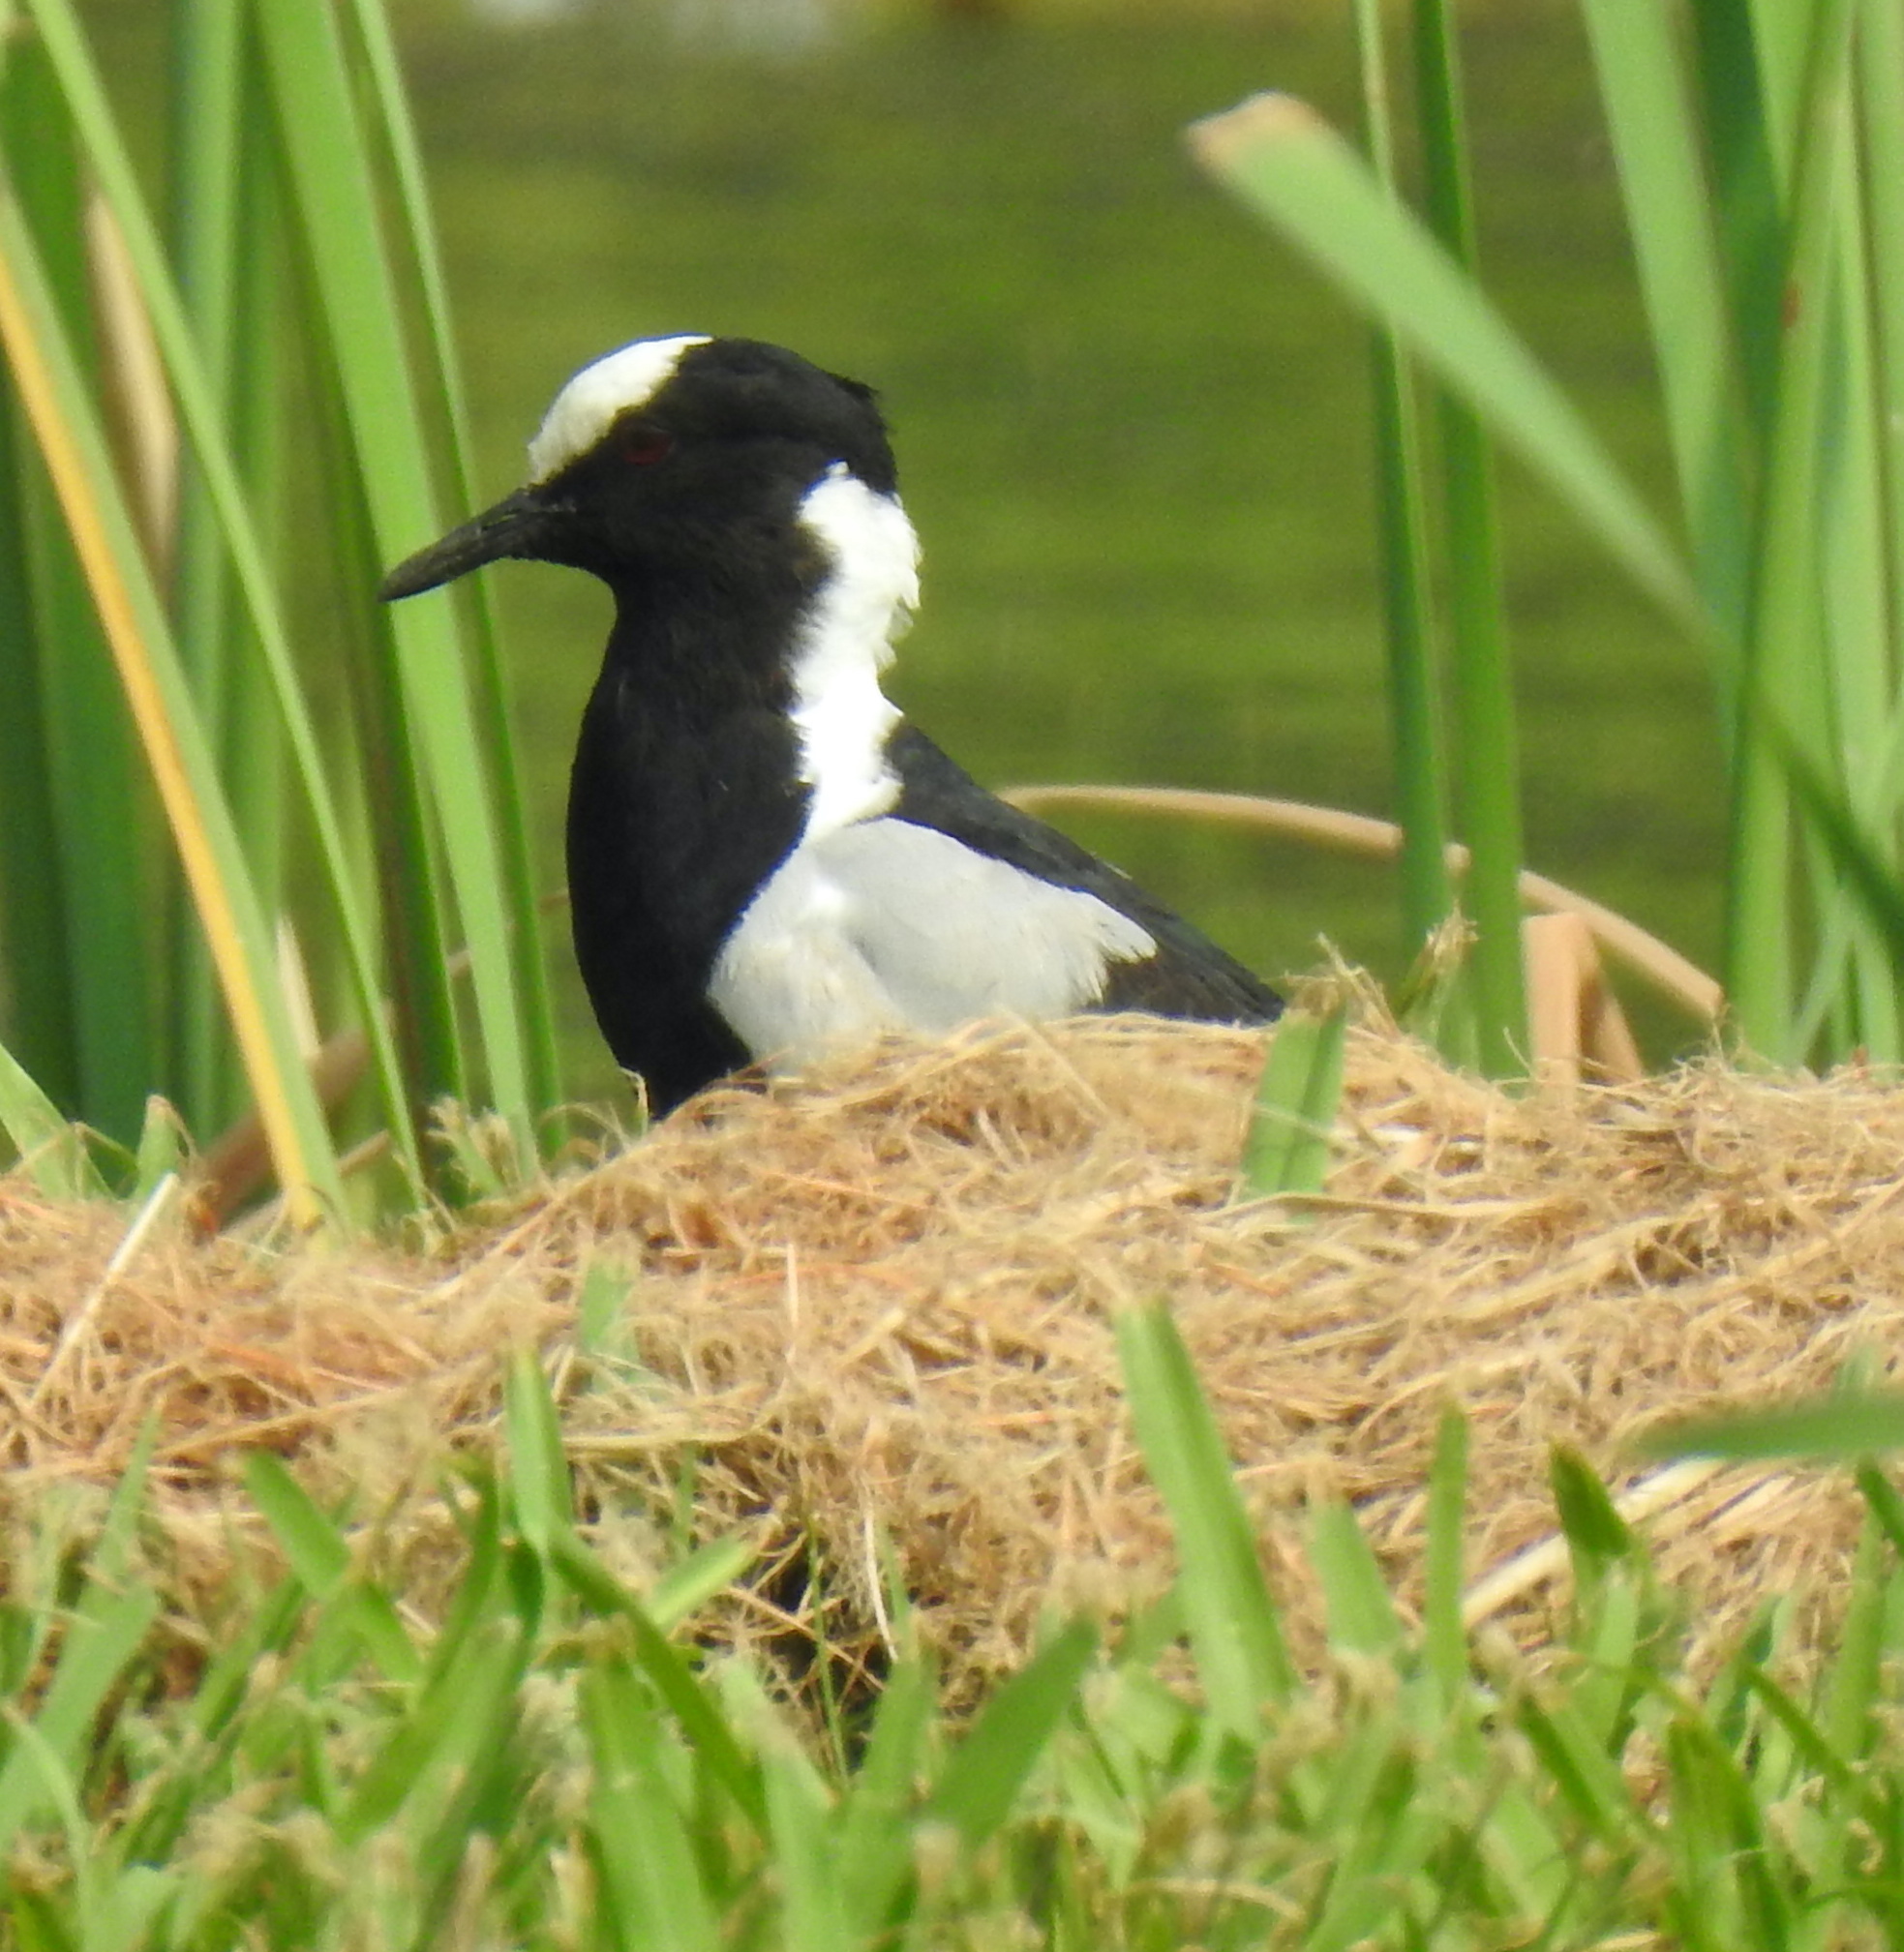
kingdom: Animalia
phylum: Chordata
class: Aves
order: Charadriiformes
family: Charadriidae
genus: Vanellus
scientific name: Vanellus armatus
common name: Blacksmith lapwing
